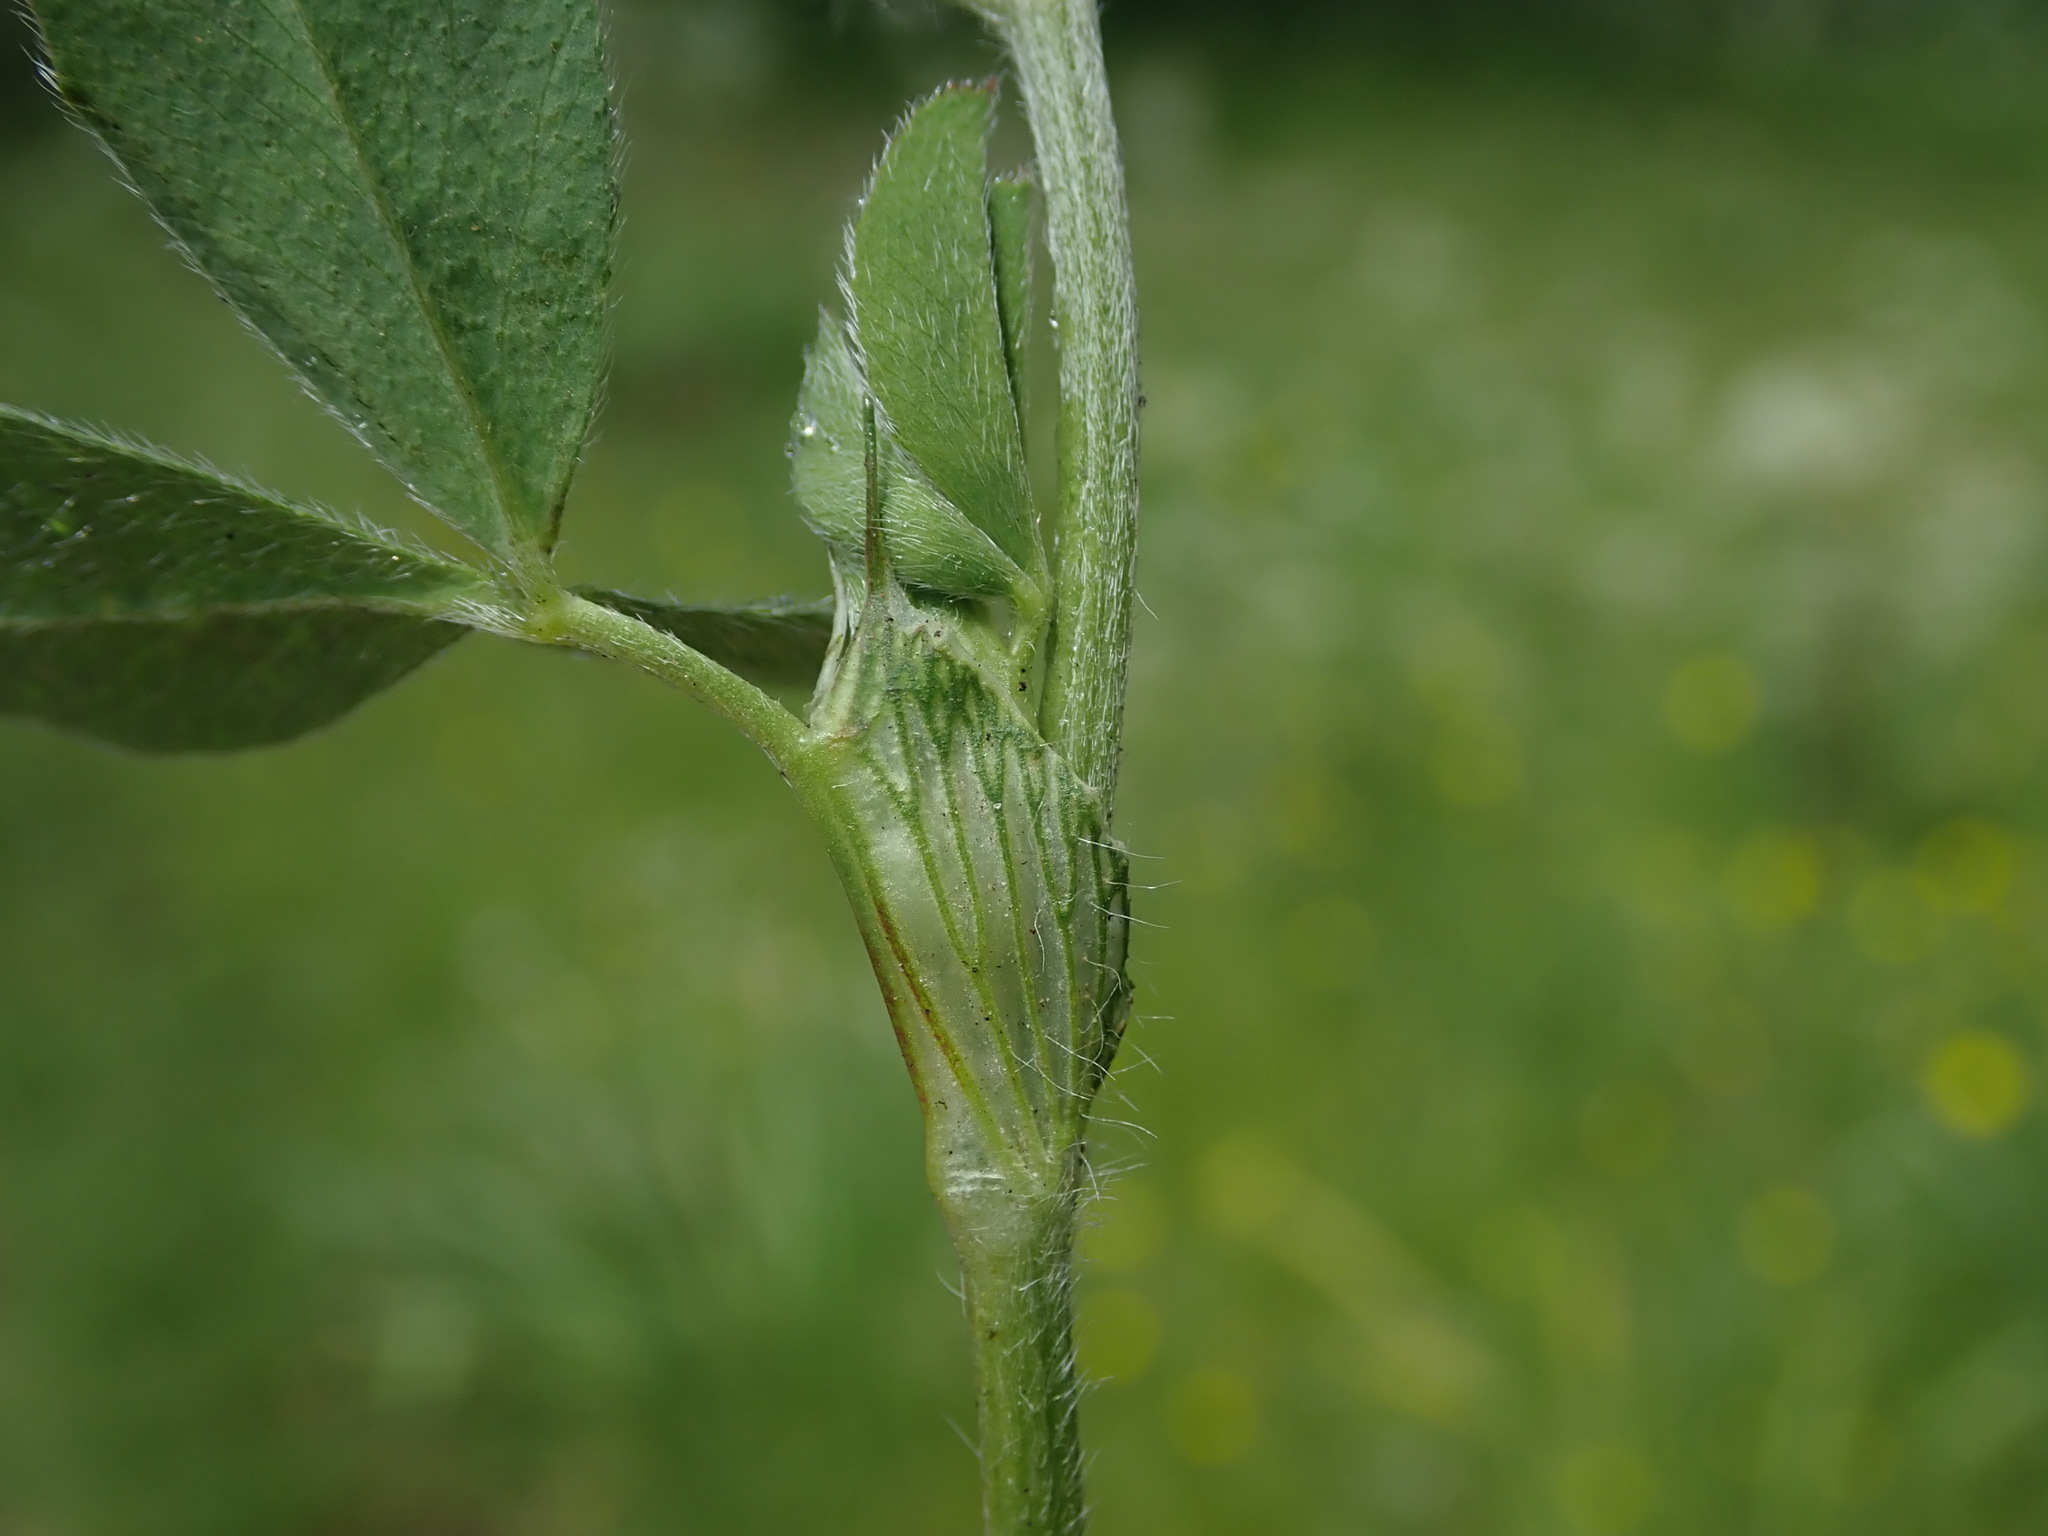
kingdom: Plantae
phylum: Tracheophyta
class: Magnoliopsida
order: Fabales
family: Fabaceae
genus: Trifolium
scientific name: Trifolium pratense
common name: Red clover
